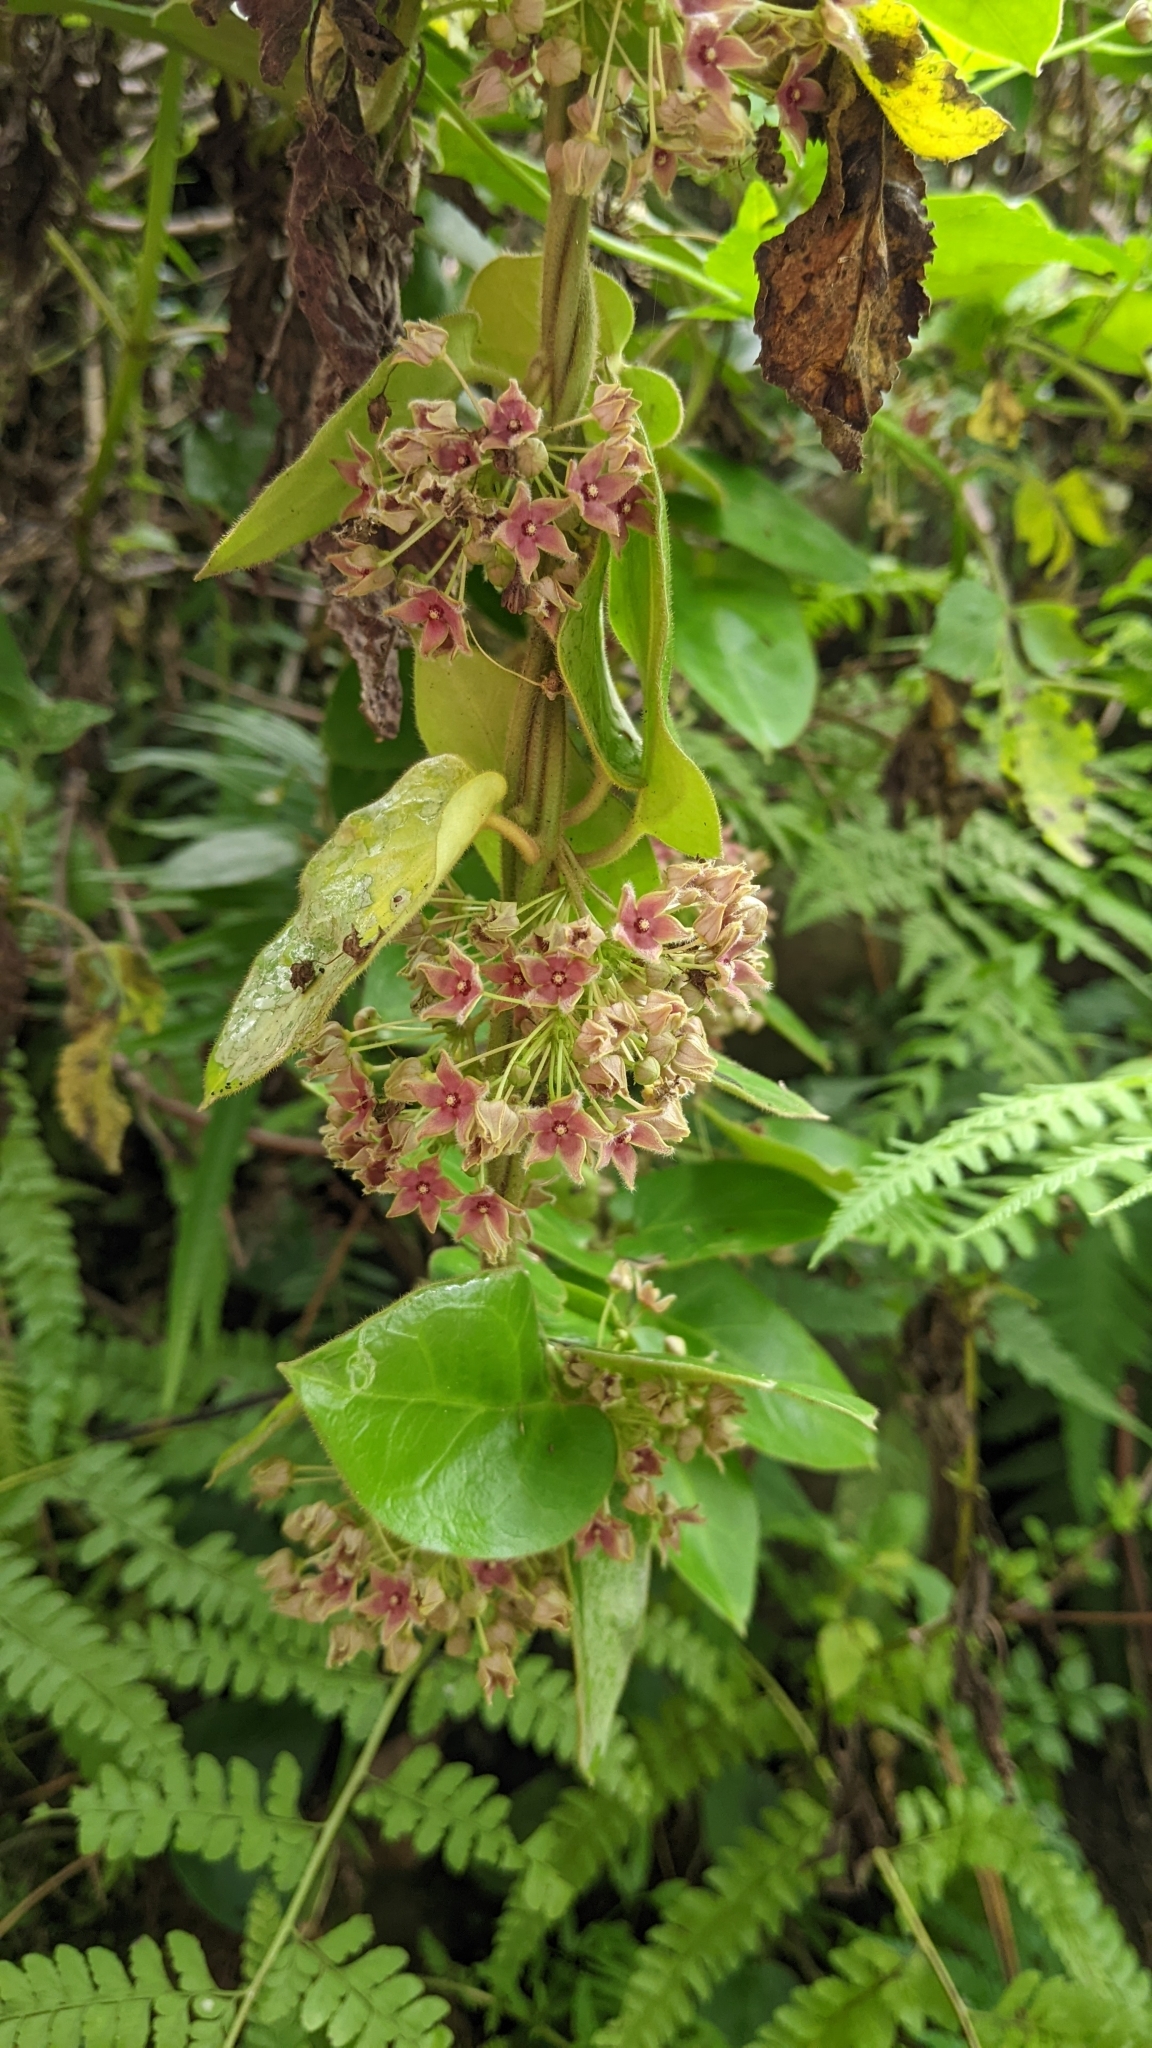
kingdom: Plantae
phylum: Tracheophyta
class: Magnoliopsida
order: Gentianales
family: Apocynaceae
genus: Vincetoxicum
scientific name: Vincetoxicum hirsutum
